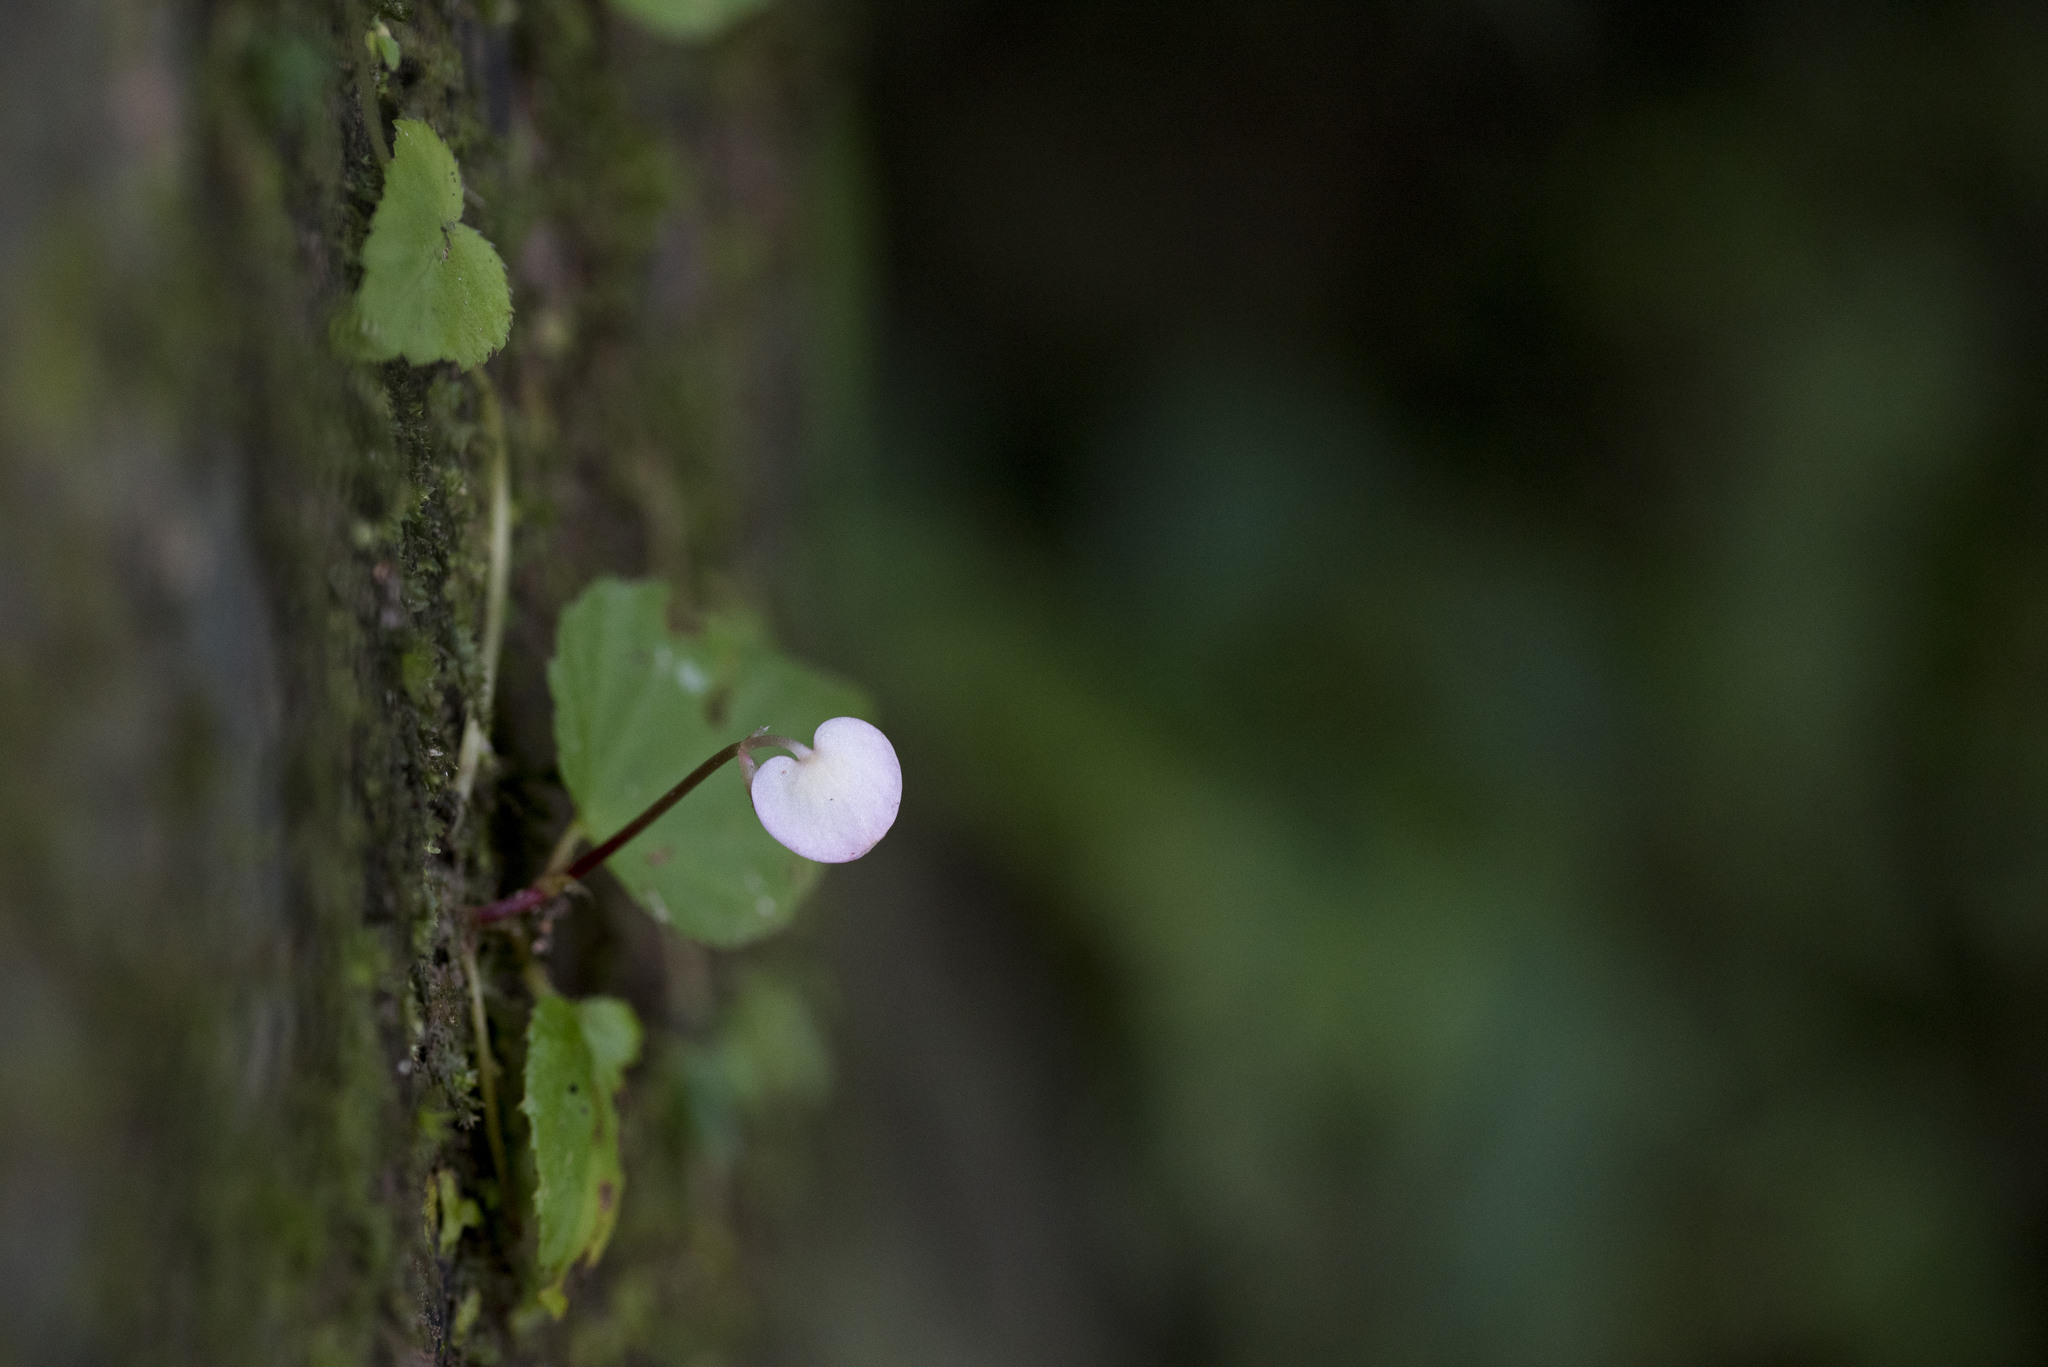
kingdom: Plantae
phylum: Tracheophyta
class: Magnoliopsida
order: Cucurbitales
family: Begoniaceae
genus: Begonia
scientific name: Begonia ravenii
